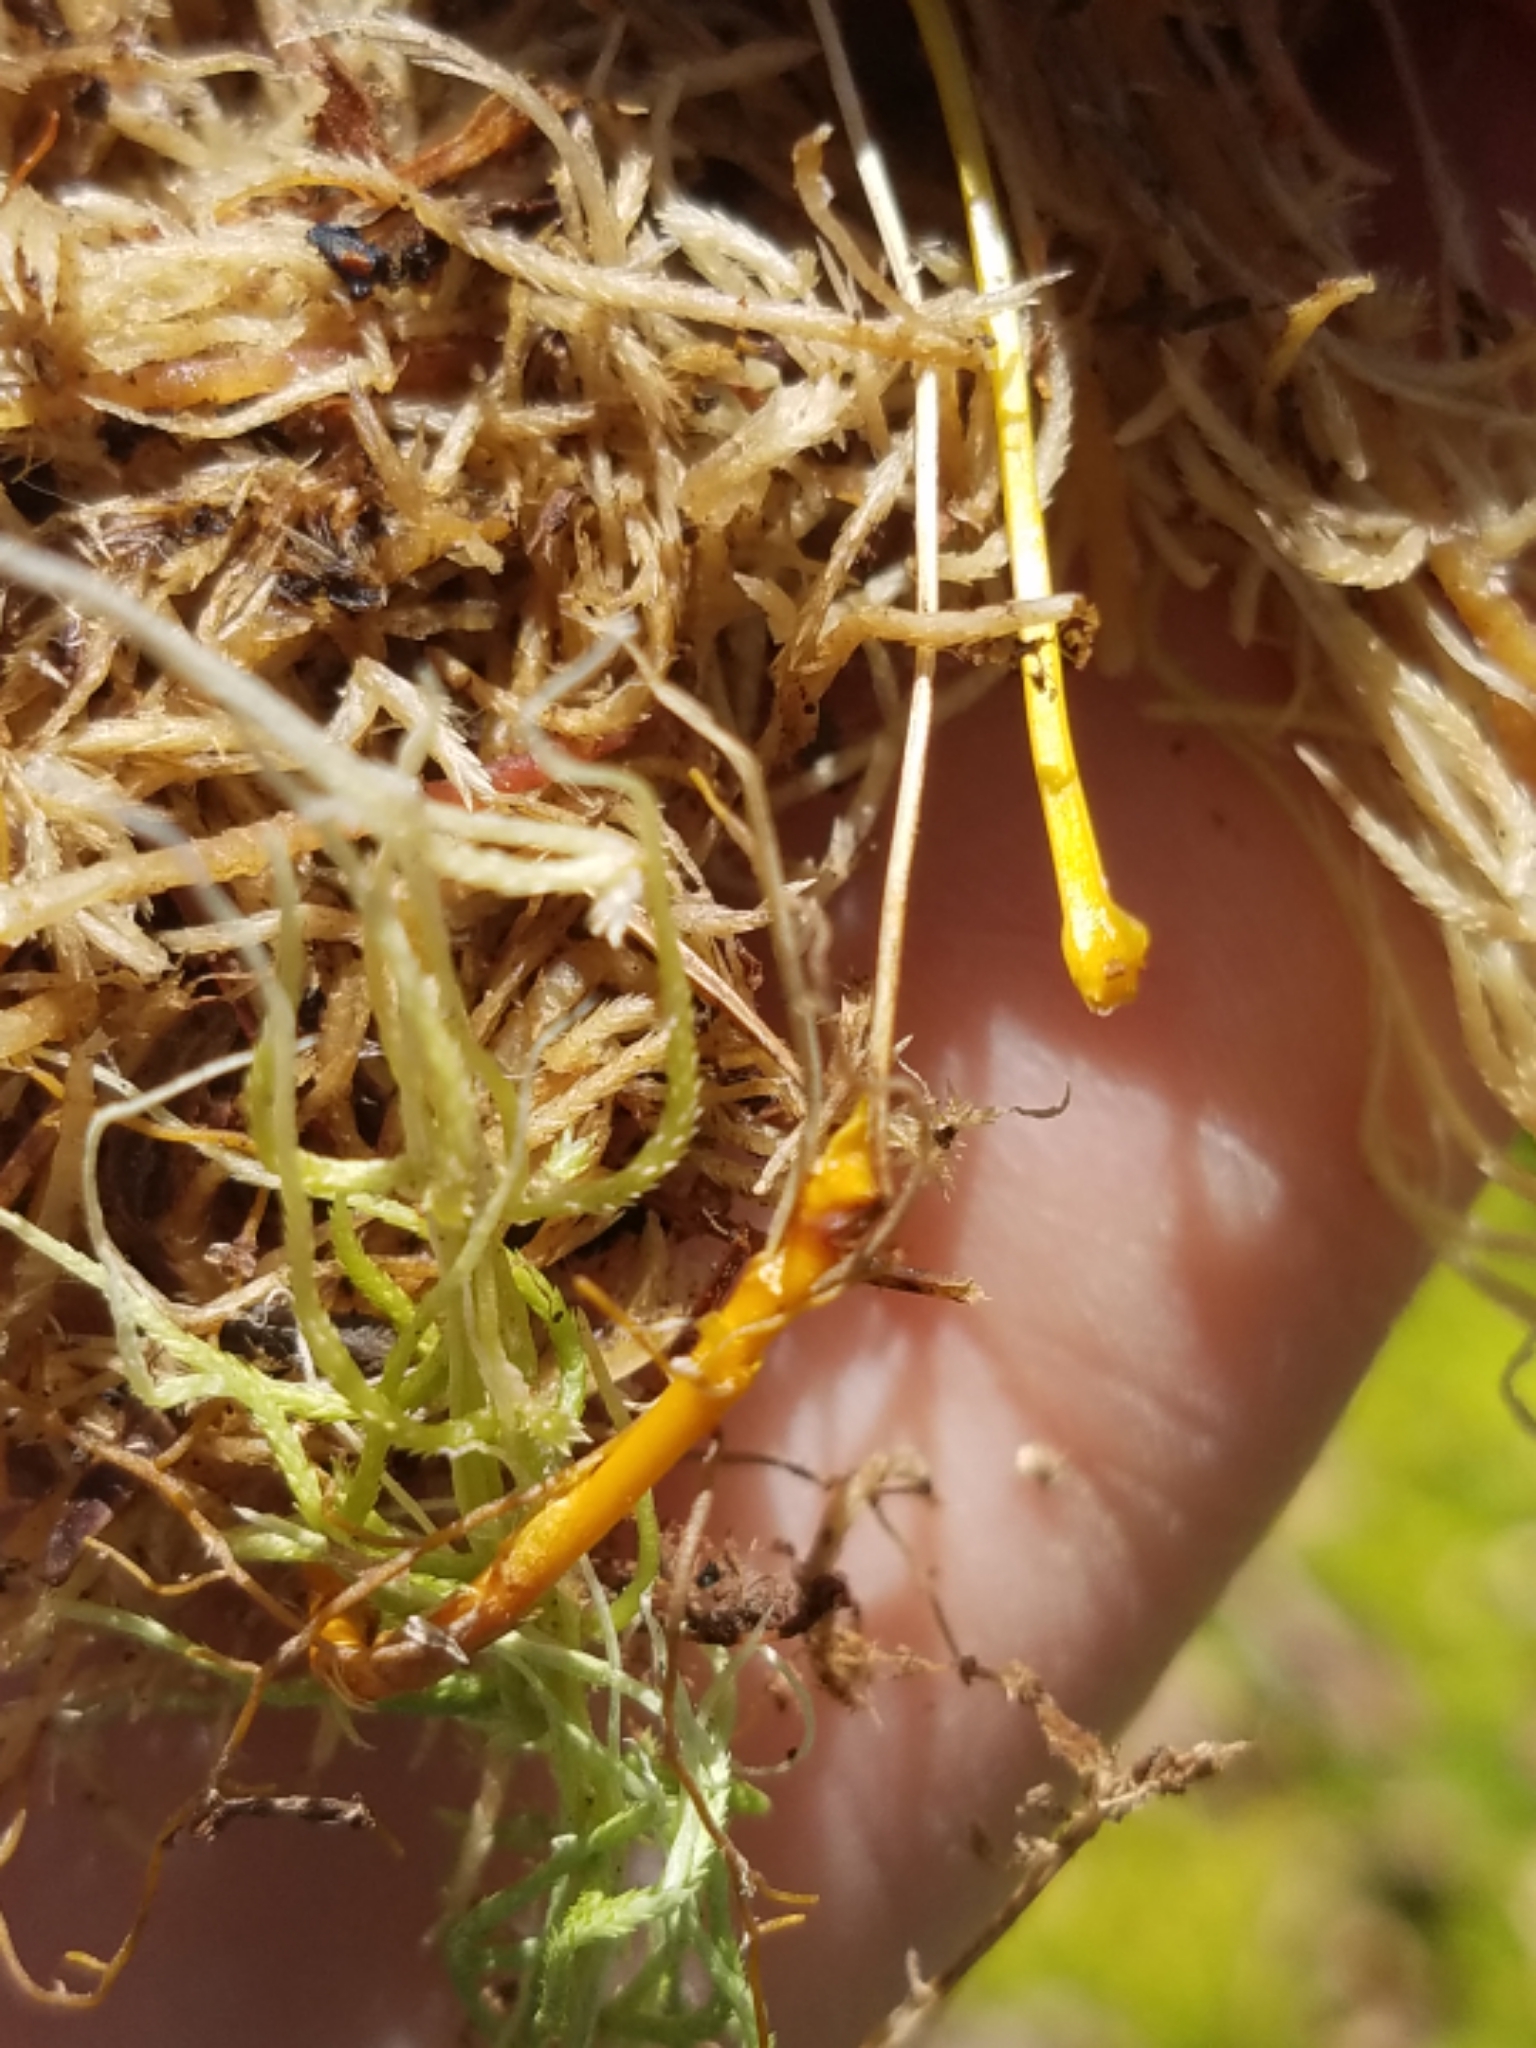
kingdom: Plantae
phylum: Tracheophyta
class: Magnoliopsida
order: Ranunculales
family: Ranunculaceae
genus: Coptis
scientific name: Coptis trifolia
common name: Canker-root
